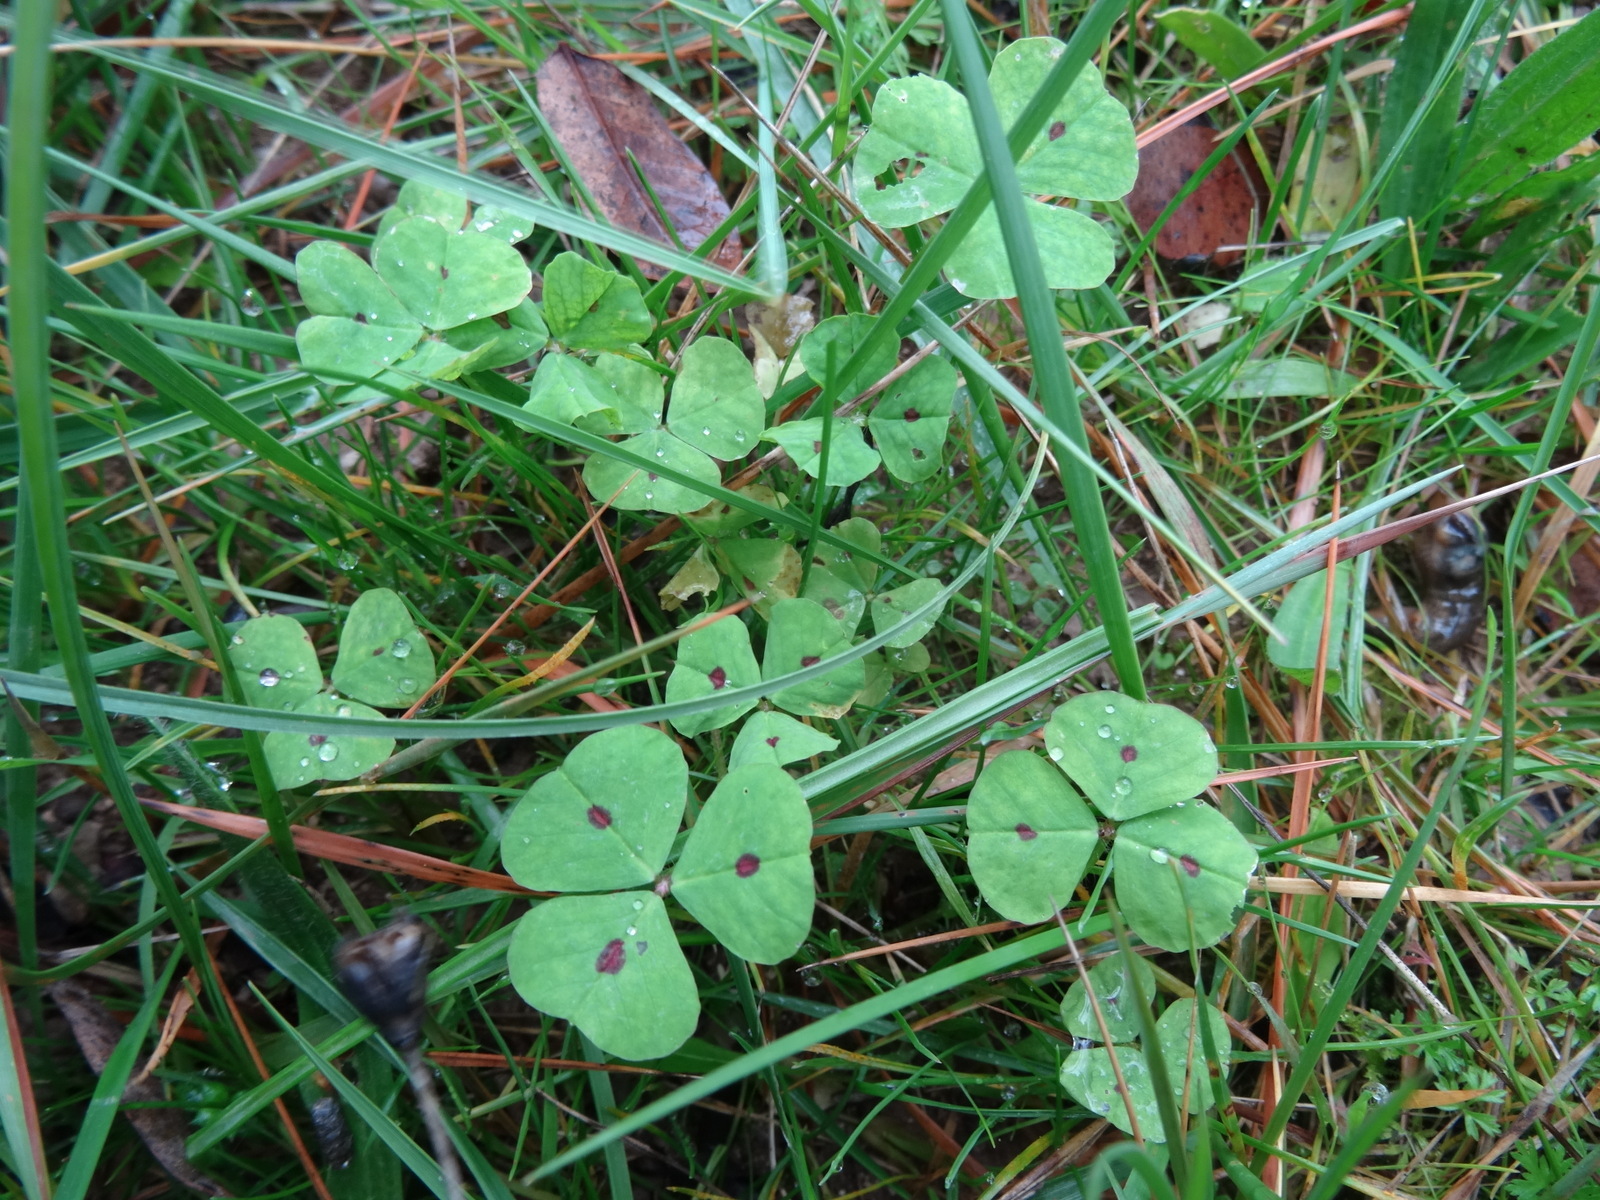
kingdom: Plantae
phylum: Tracheophyta
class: Magnoliopsida
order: Fabales
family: Fabaceae
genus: Medicago
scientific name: Medicago arabica
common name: Spotted medick
